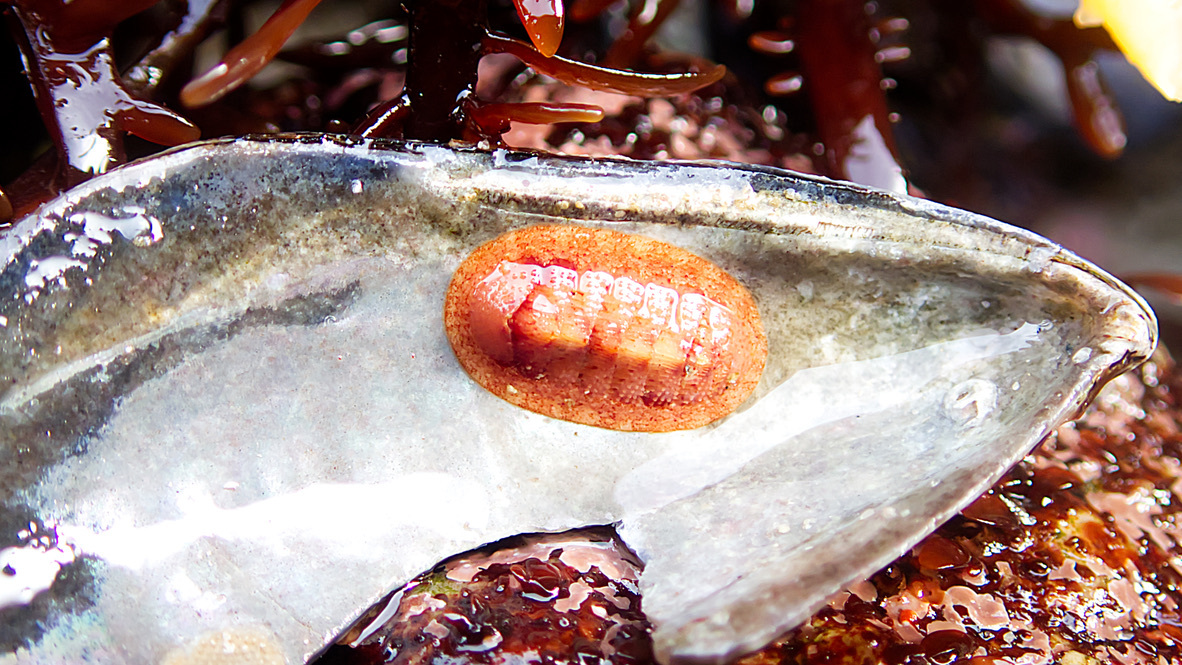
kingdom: Animalia
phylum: Mollusca
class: Polyplacophora
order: Chitonida
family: Ischnochitonidae
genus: Lepidozona
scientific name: Lepidozona mertensii
